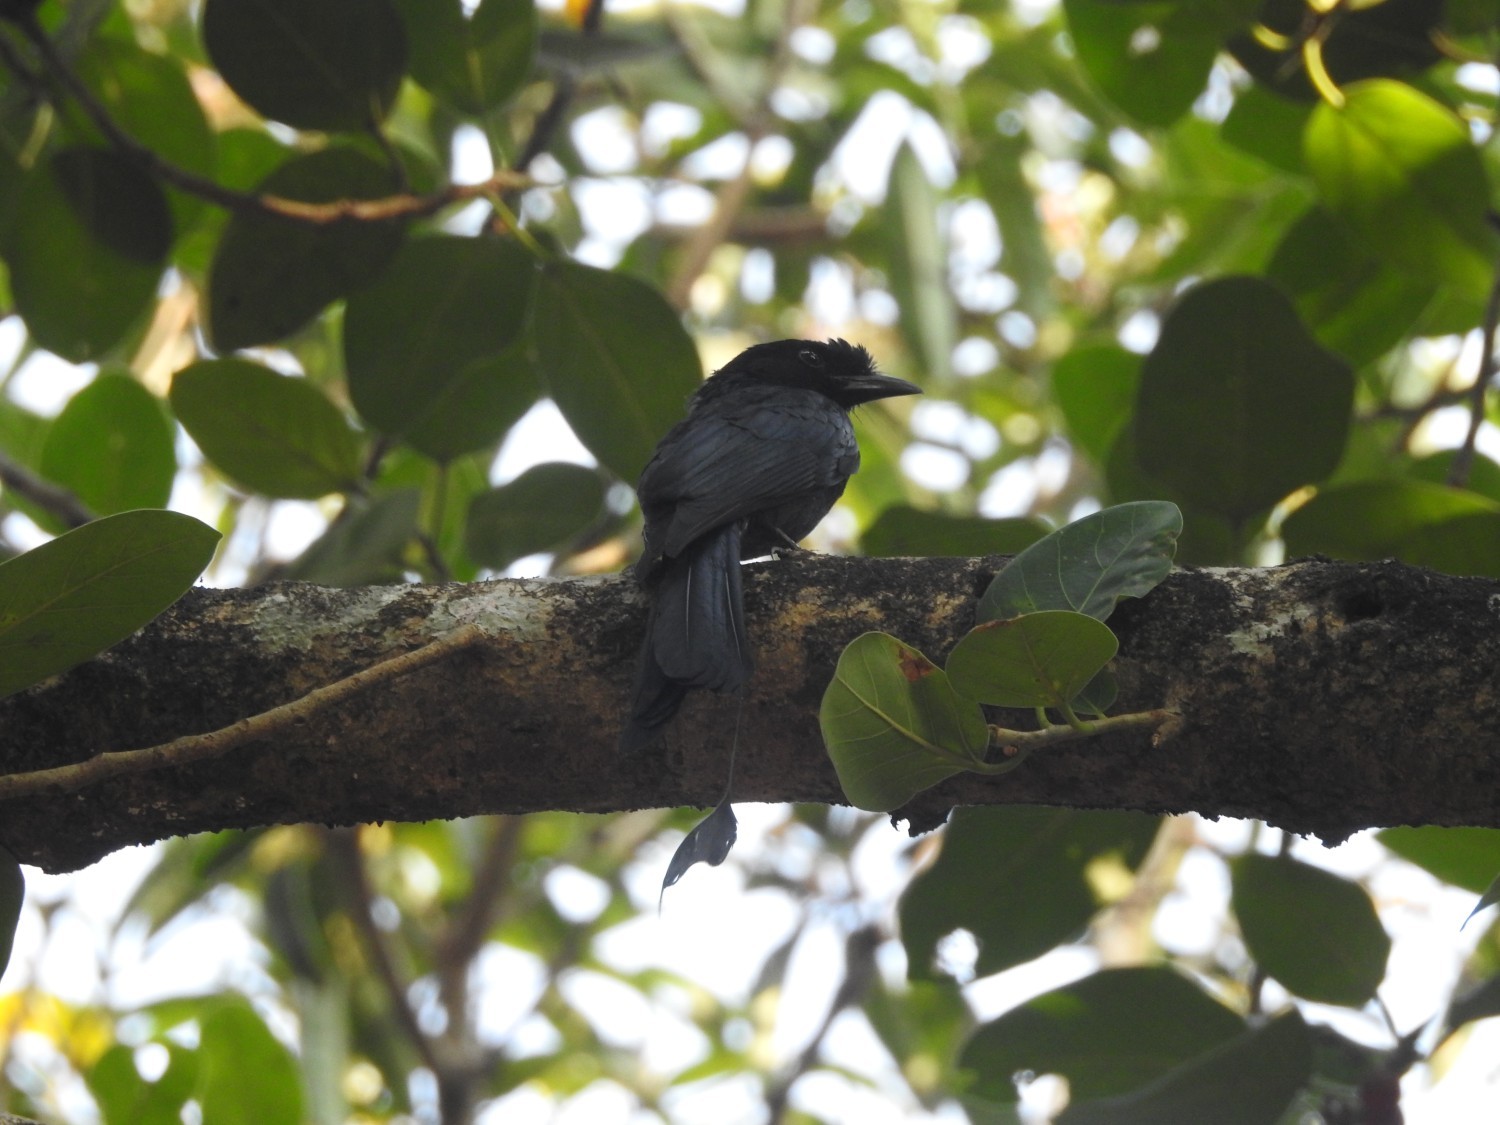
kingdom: Animalia
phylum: Chordata
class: Aves
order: Passeriformes
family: Dicruridae
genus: Dicrurus
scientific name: Dicrurus paradiseus
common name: Greater racket-tailed drongo
